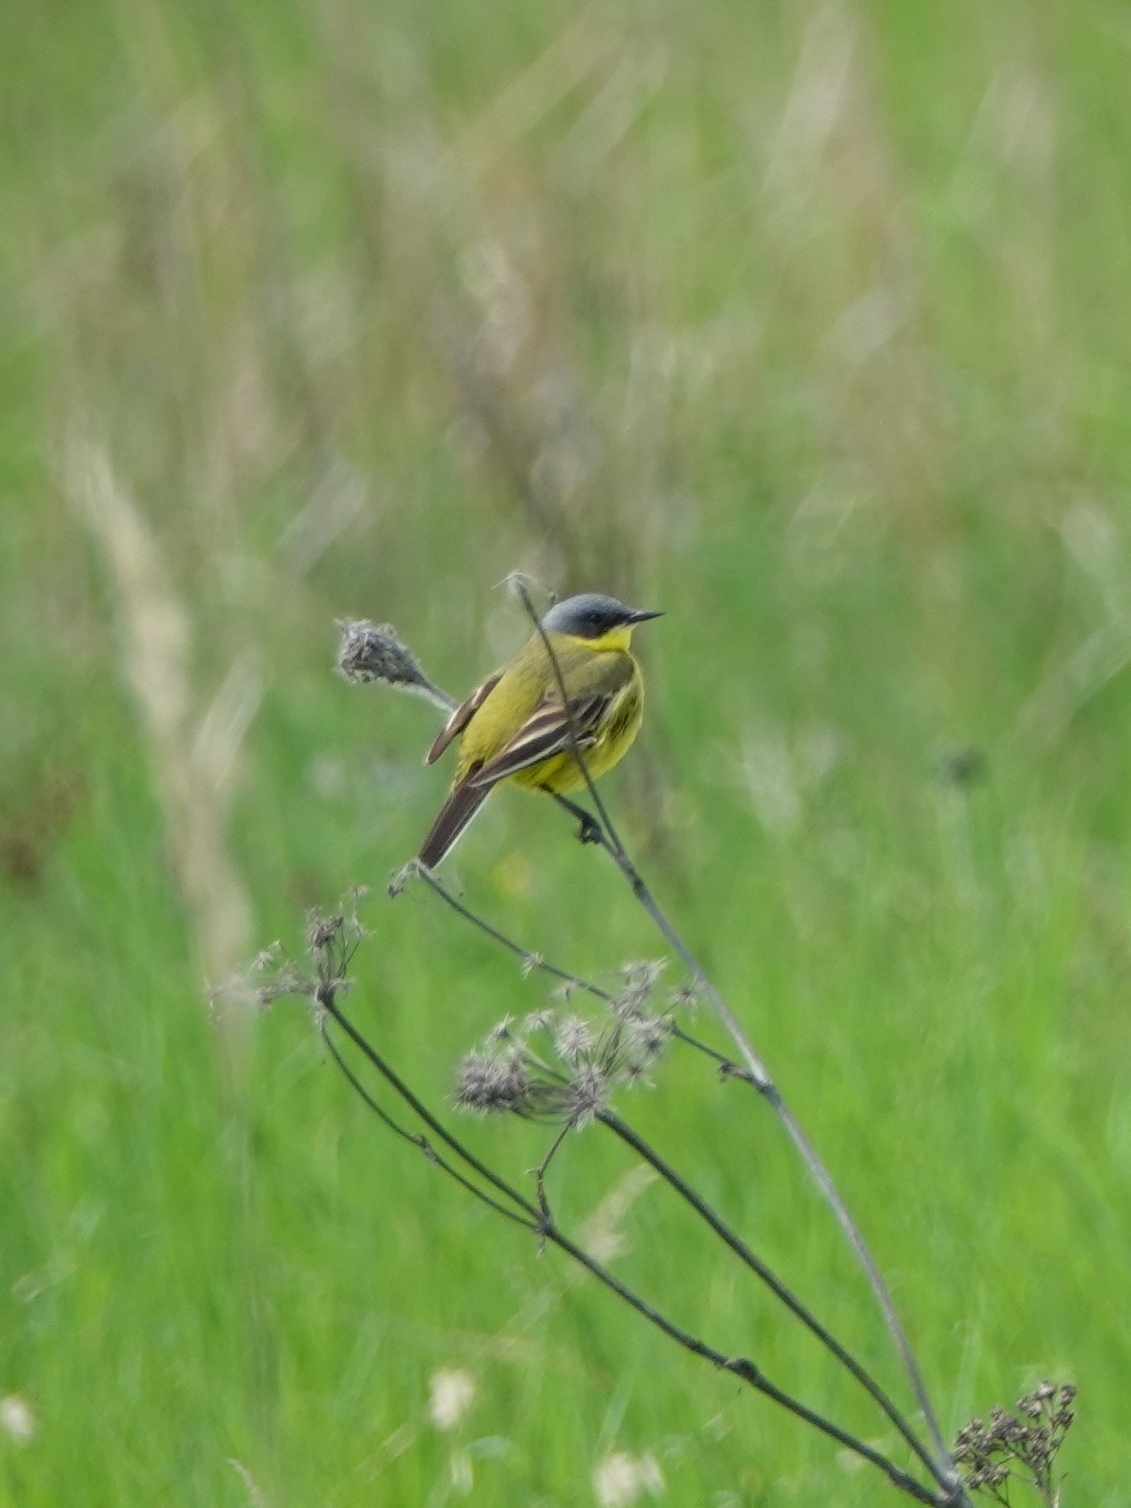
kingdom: Animalia
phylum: Chordata
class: Aves
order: Passeriformes
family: Motacillidae
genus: Motacilla
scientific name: Motacilla flava
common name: Western yellow wagtail
